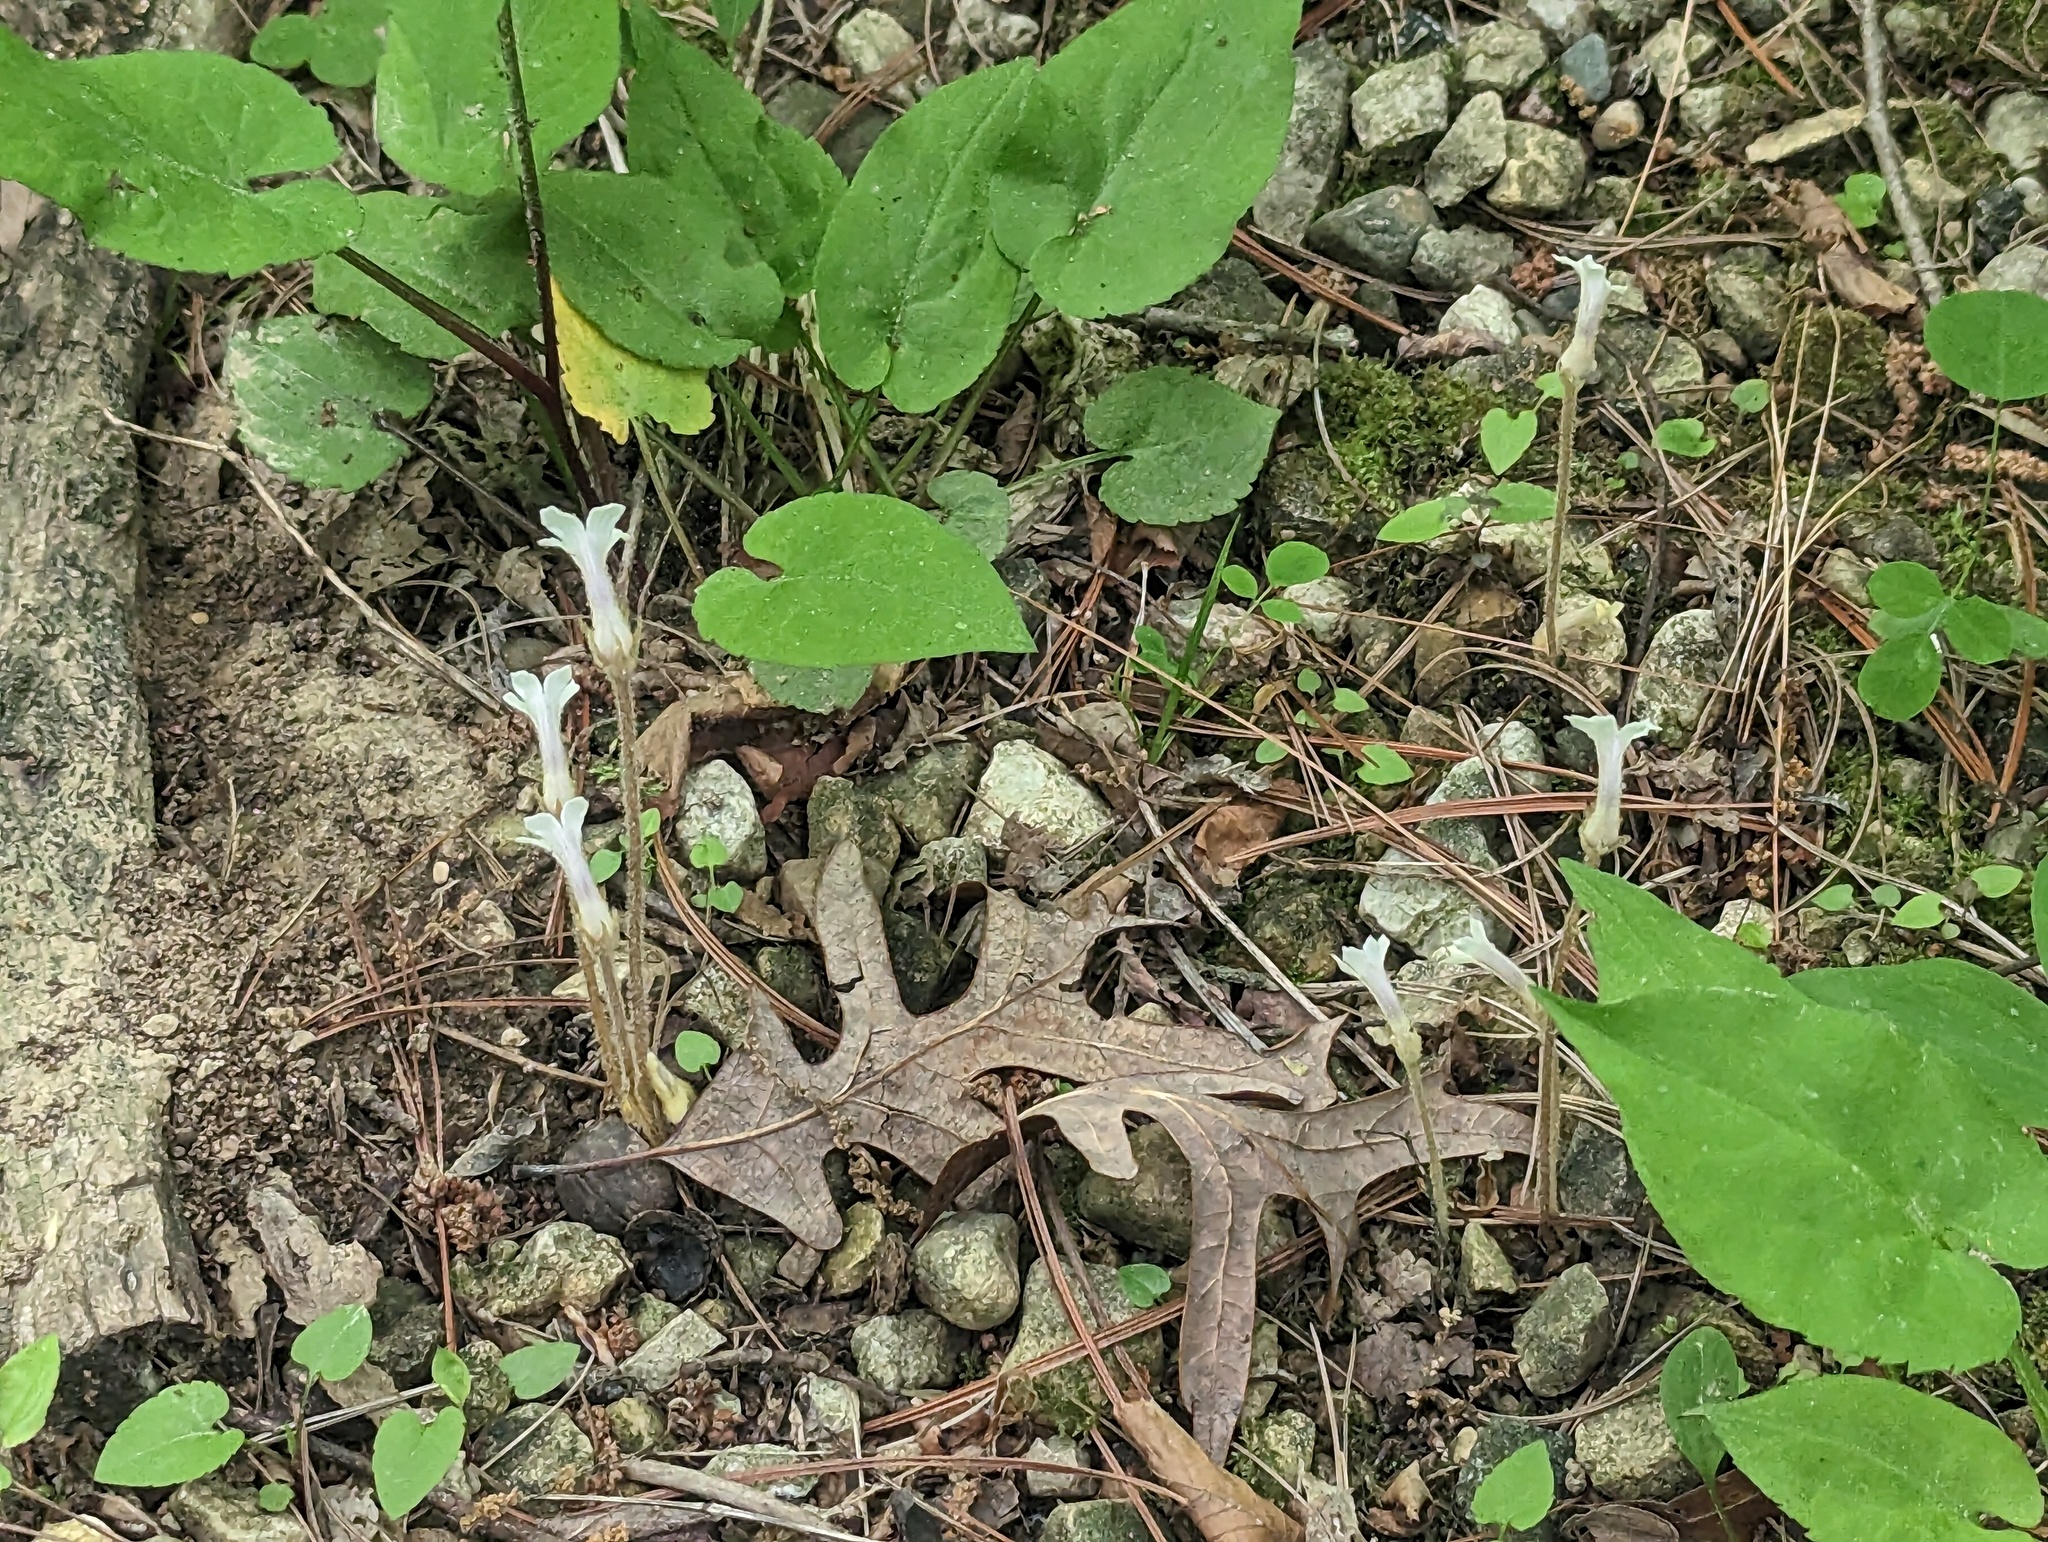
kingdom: Plantae
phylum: Tracheophyta
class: Magnoliopsida
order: Lamiales
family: Orobanchaceae
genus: Aphyllon
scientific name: Aphyllon uniflorum
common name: One-flowered broomrape
